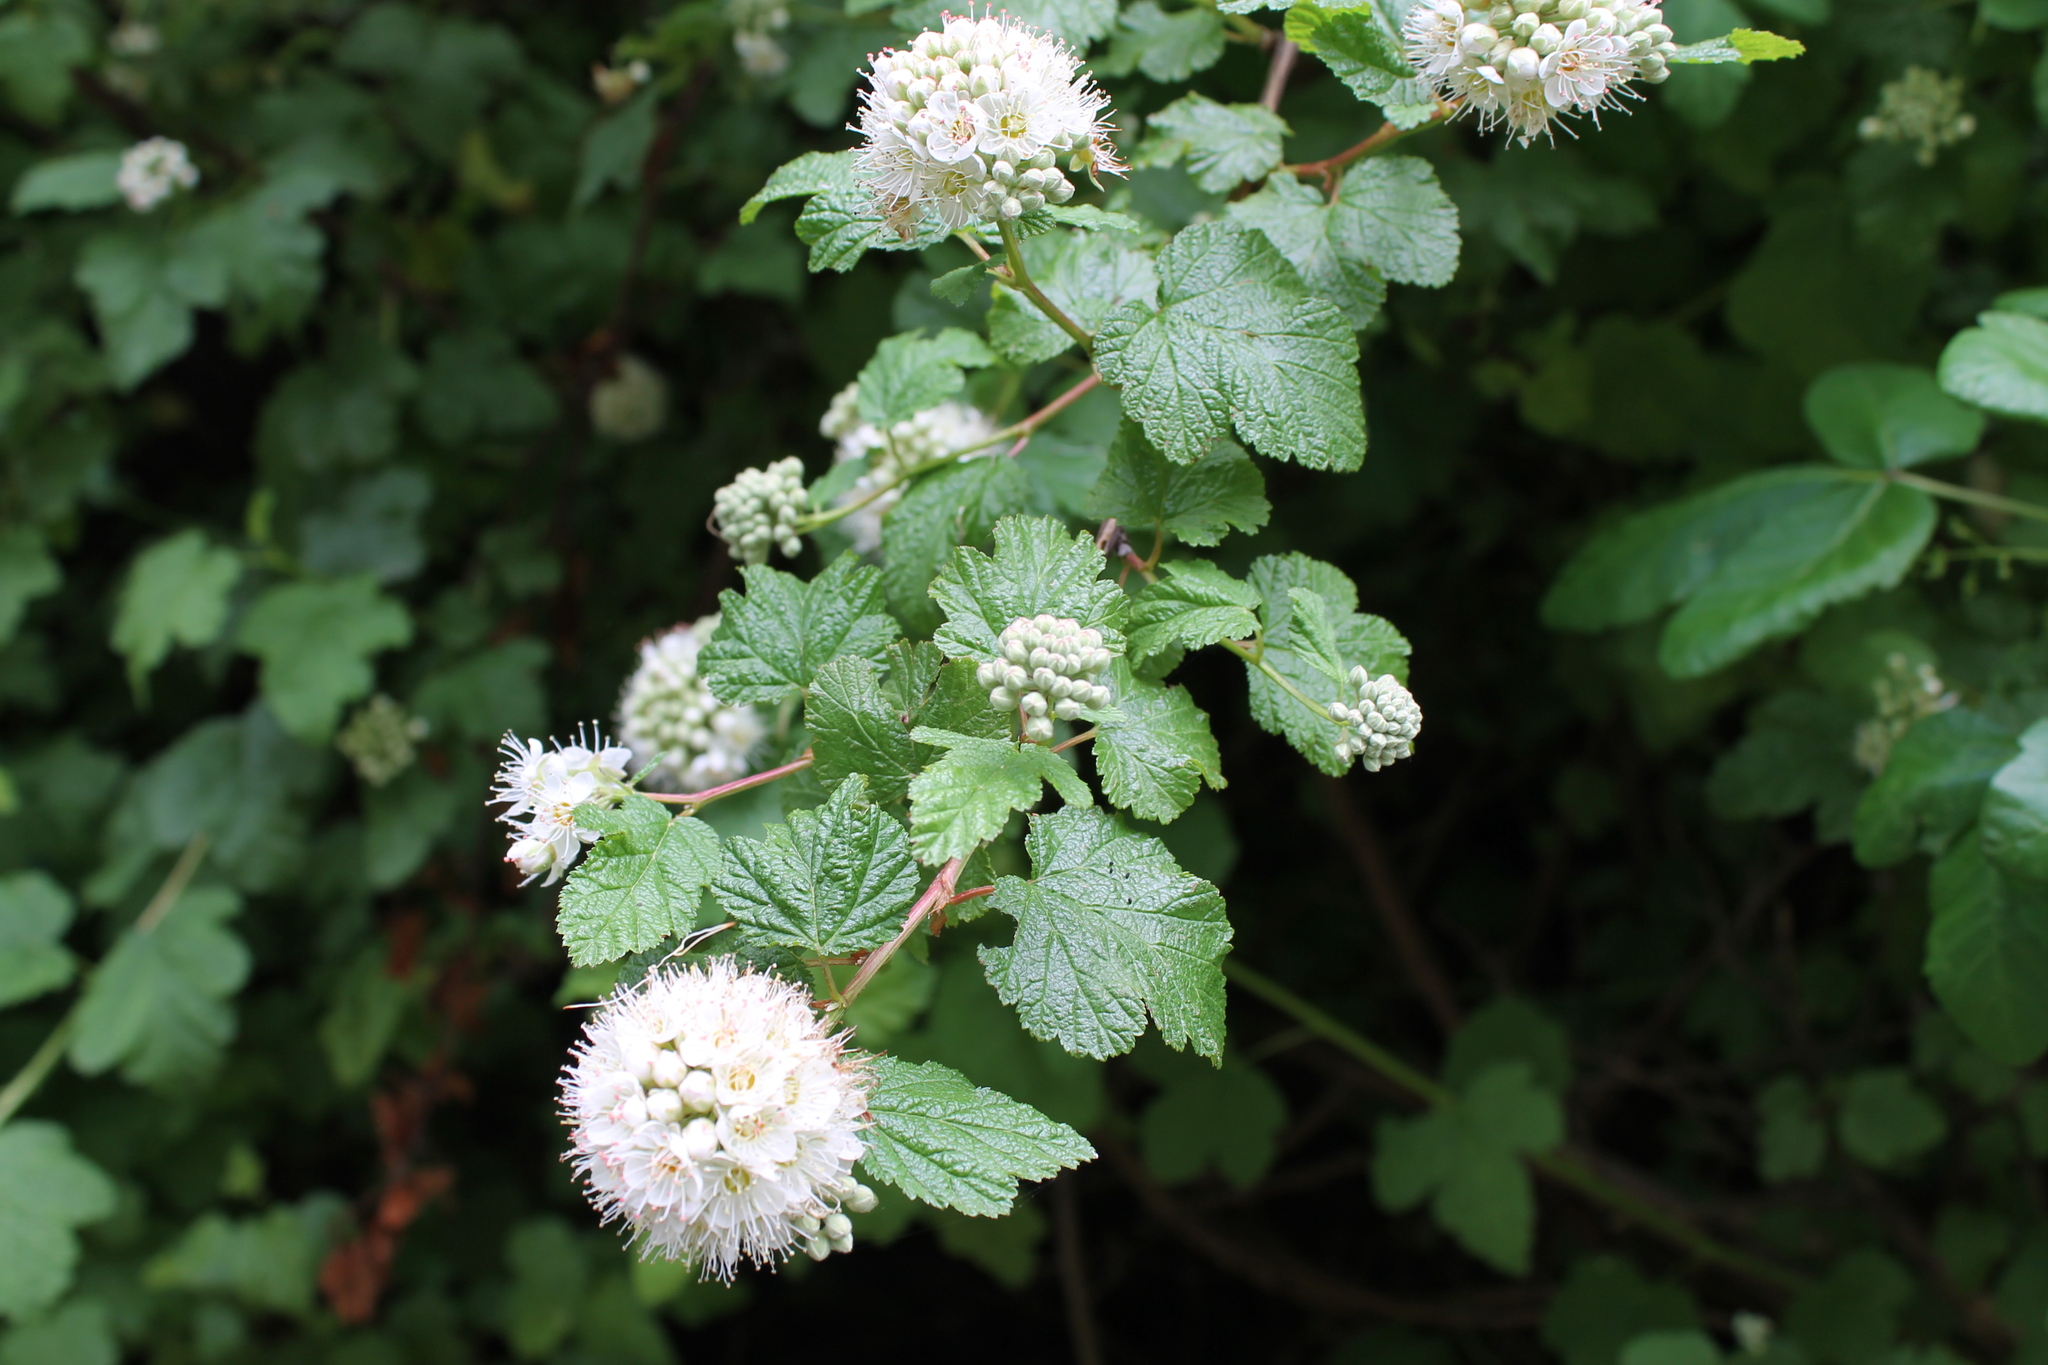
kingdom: Plantae
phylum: Tracheophyta
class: Magnoliopsida
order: Rosales
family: Rosaceae
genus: Physocarpus
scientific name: Physocarpus capitatus
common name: Pacific ninebark
